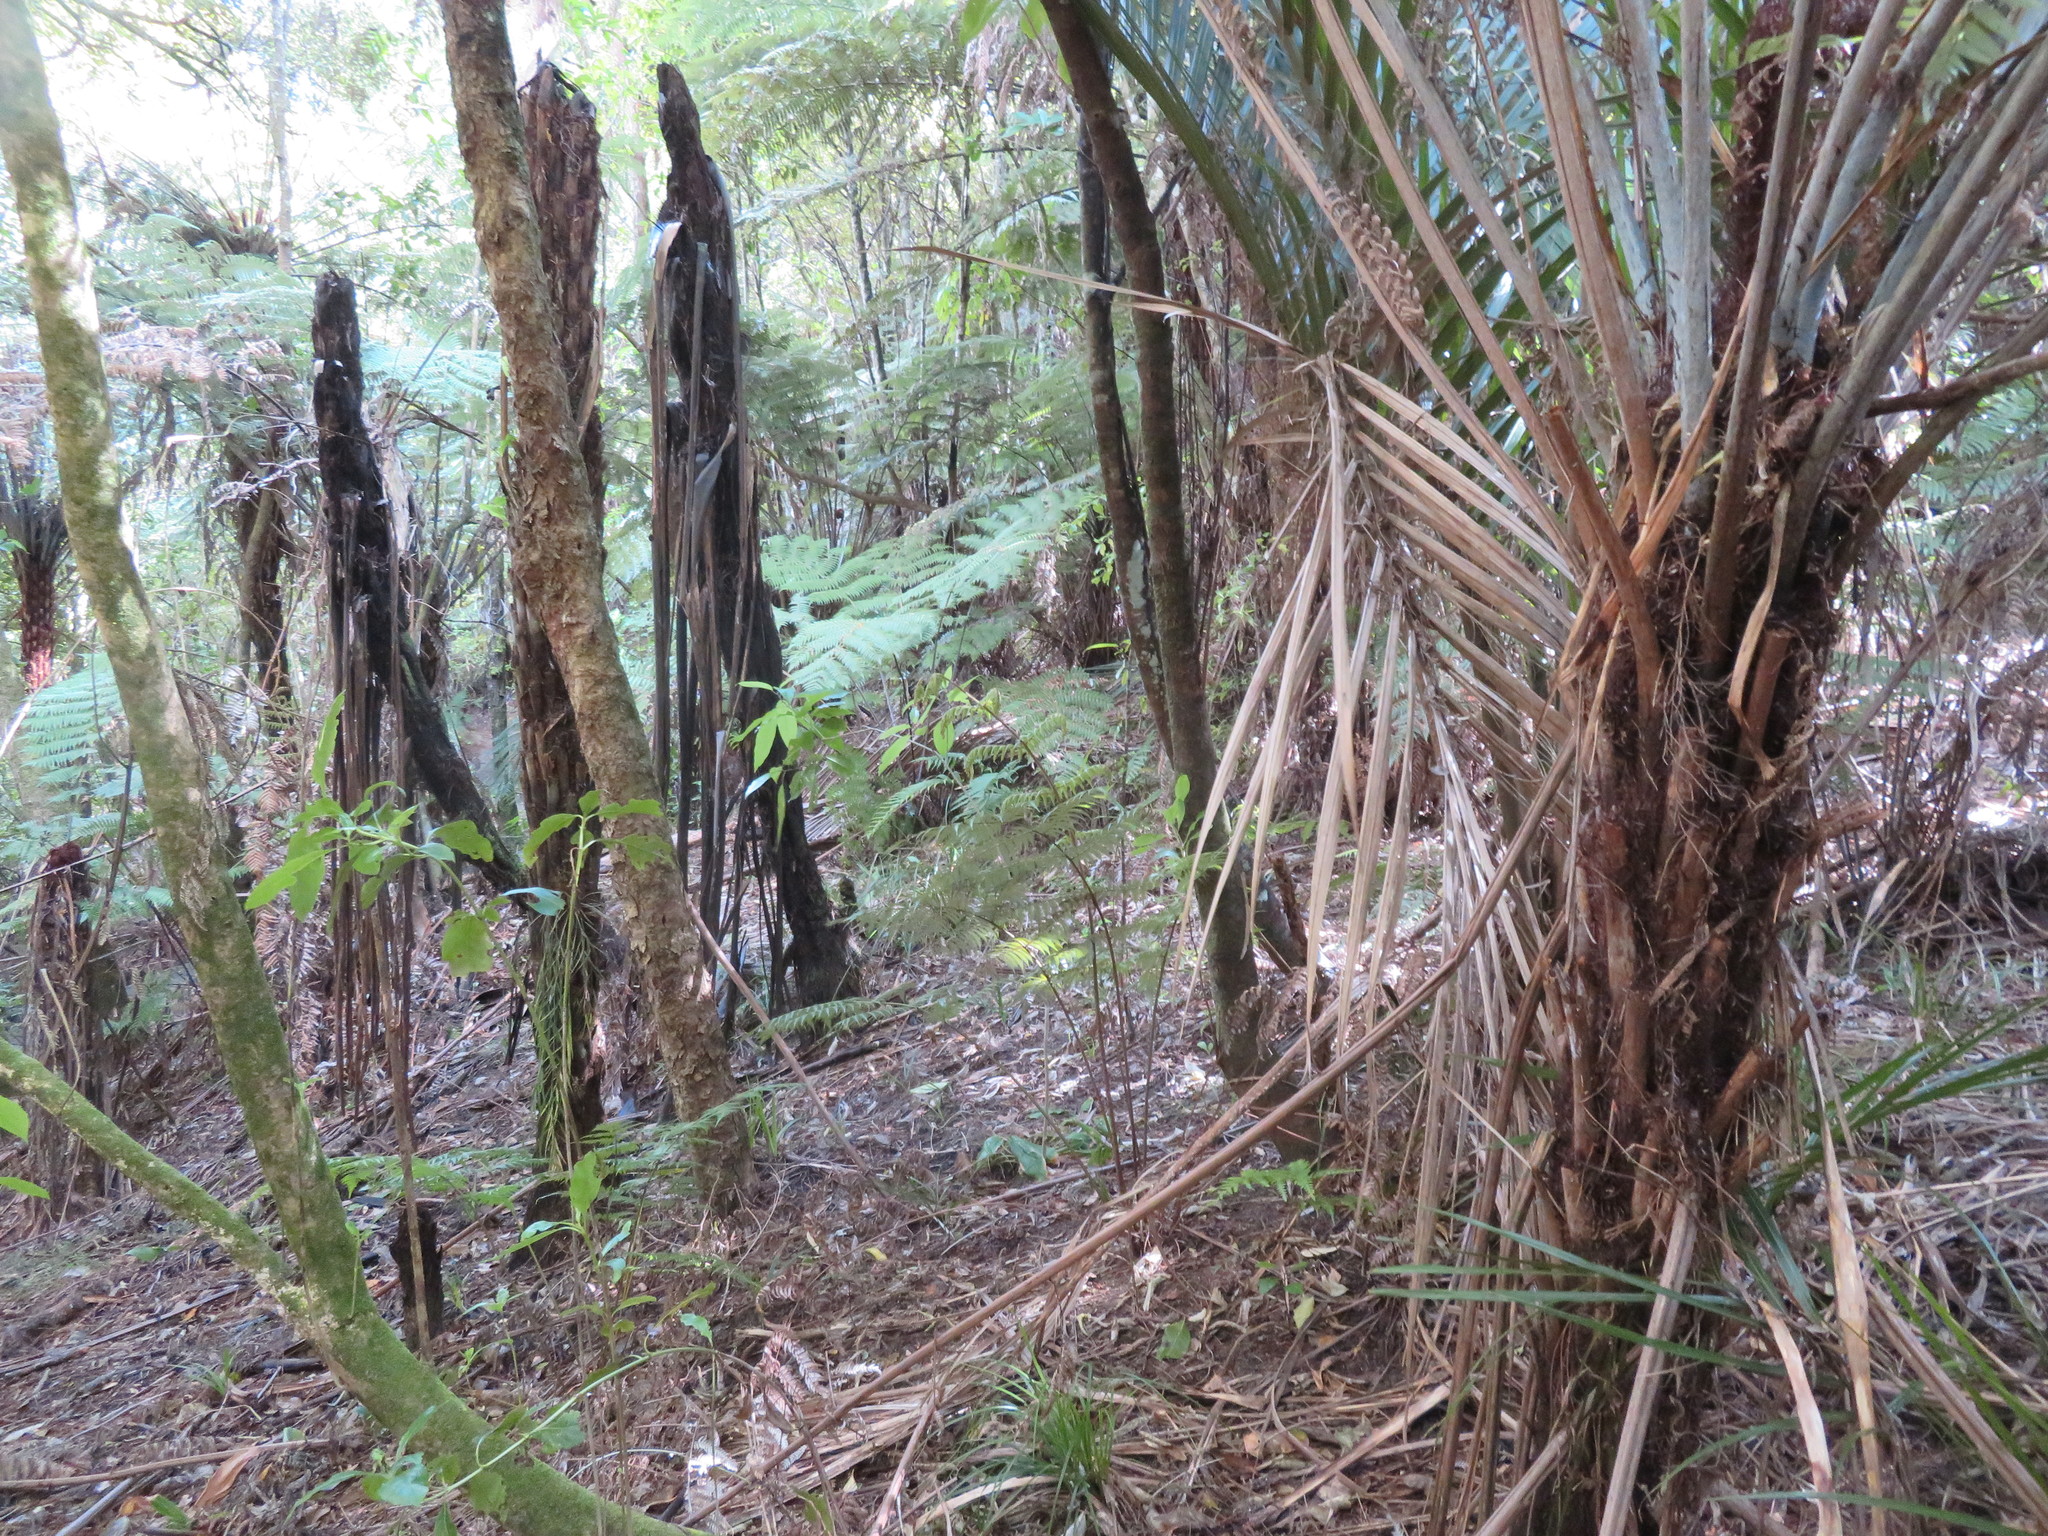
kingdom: Plantae
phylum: Tracheophyta
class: Polypodiopsida
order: Cyatheales
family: Cyatheaceae
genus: Sphaeropteris
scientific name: Sphaeropteris medullaris
